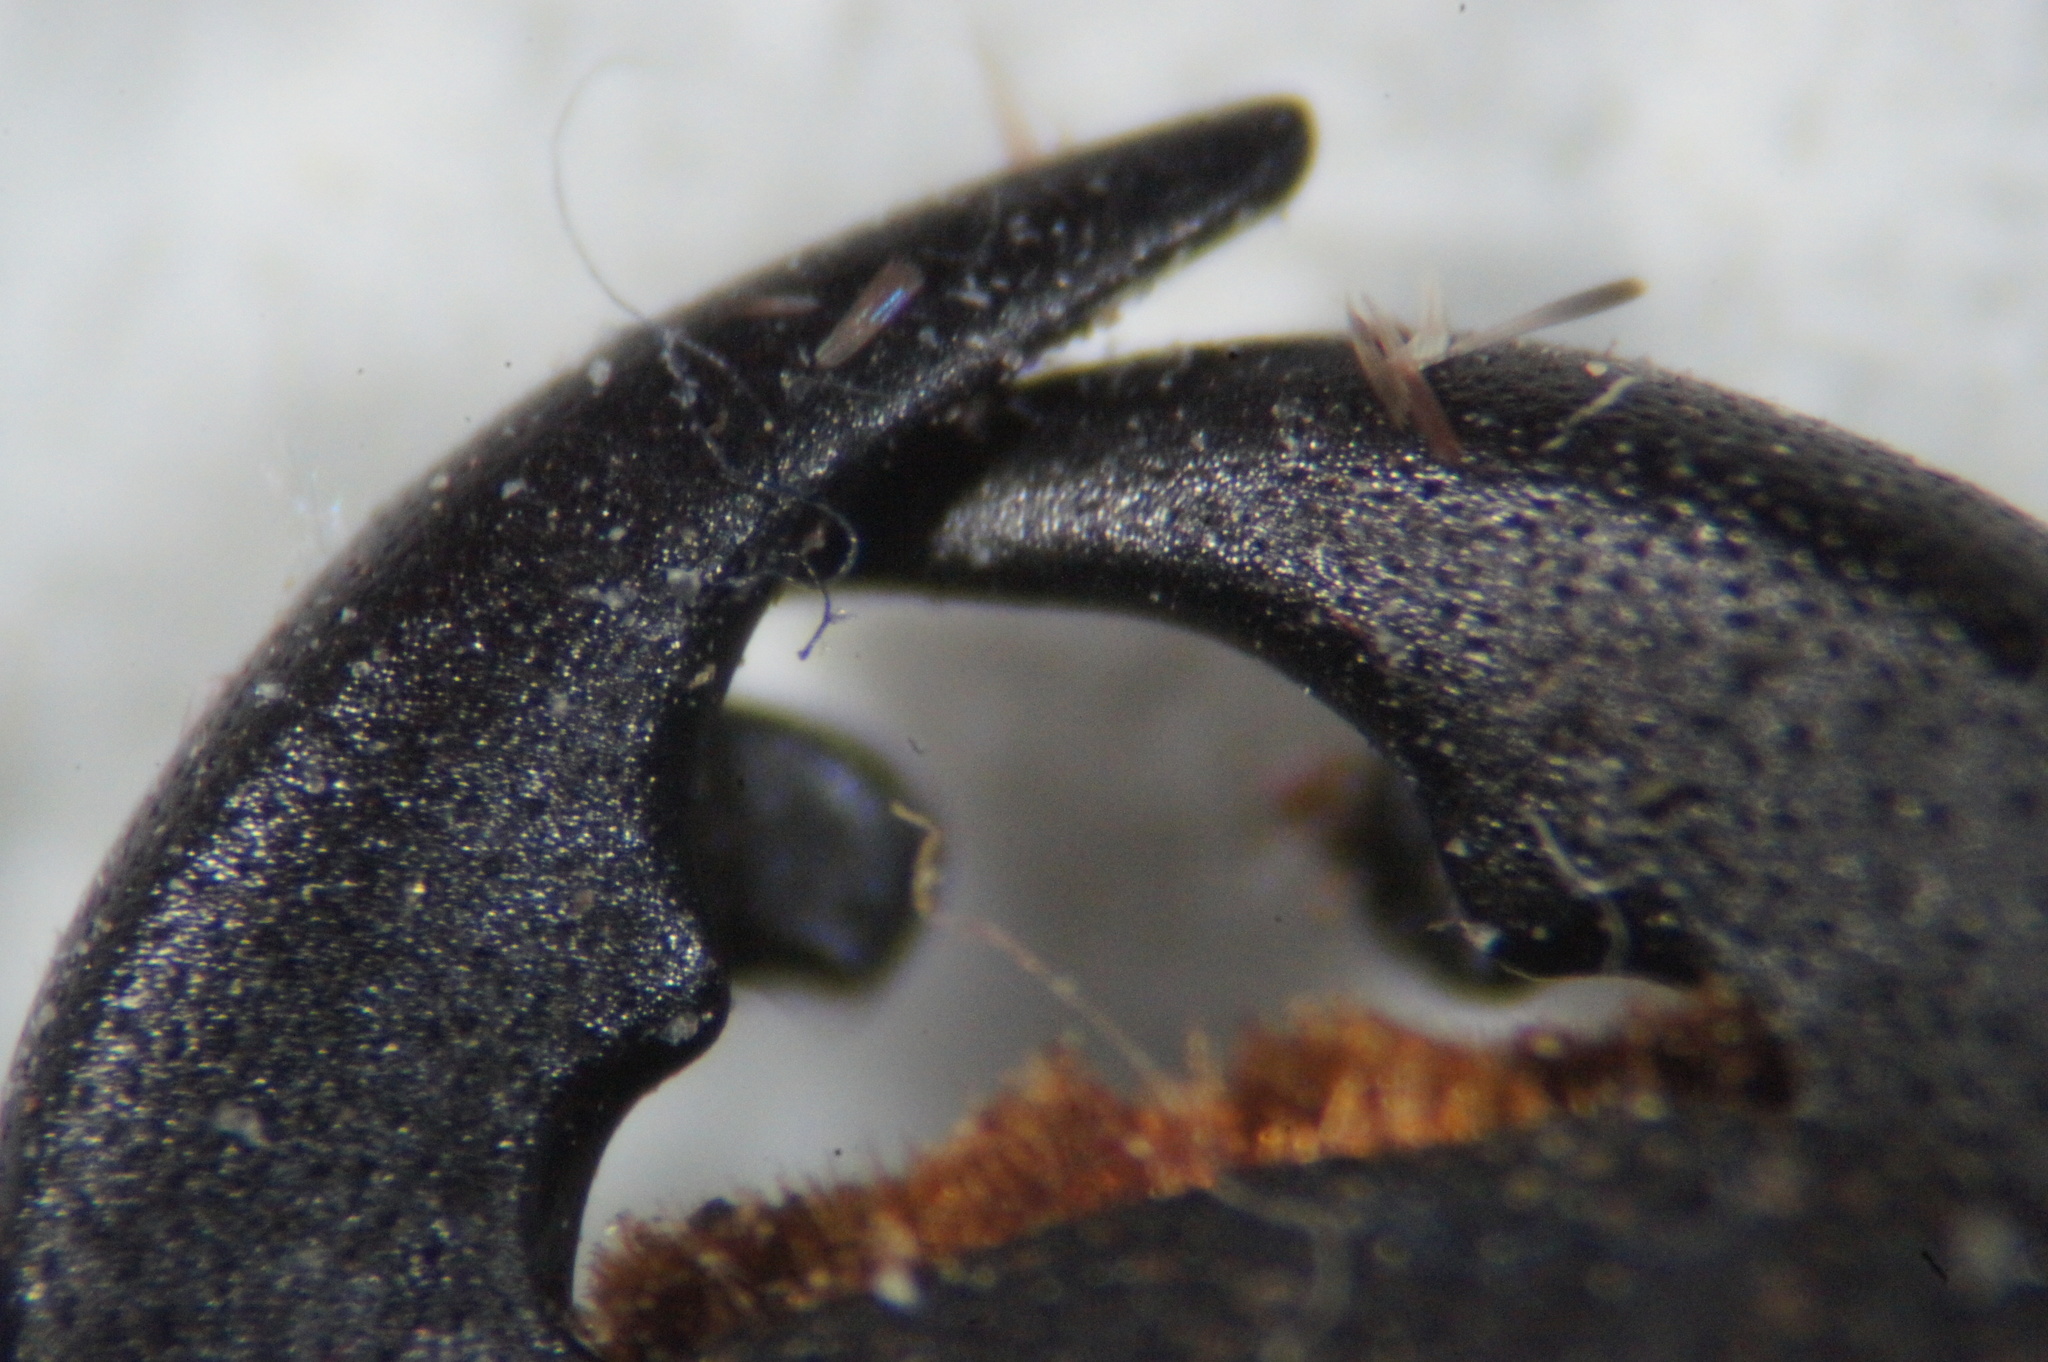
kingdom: Animalia
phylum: Arthropoda
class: Insecta
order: Coleoptera
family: Lucanidae
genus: Dorcus
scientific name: Dorcus parallelipipedus
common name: Lesser stag beetle
